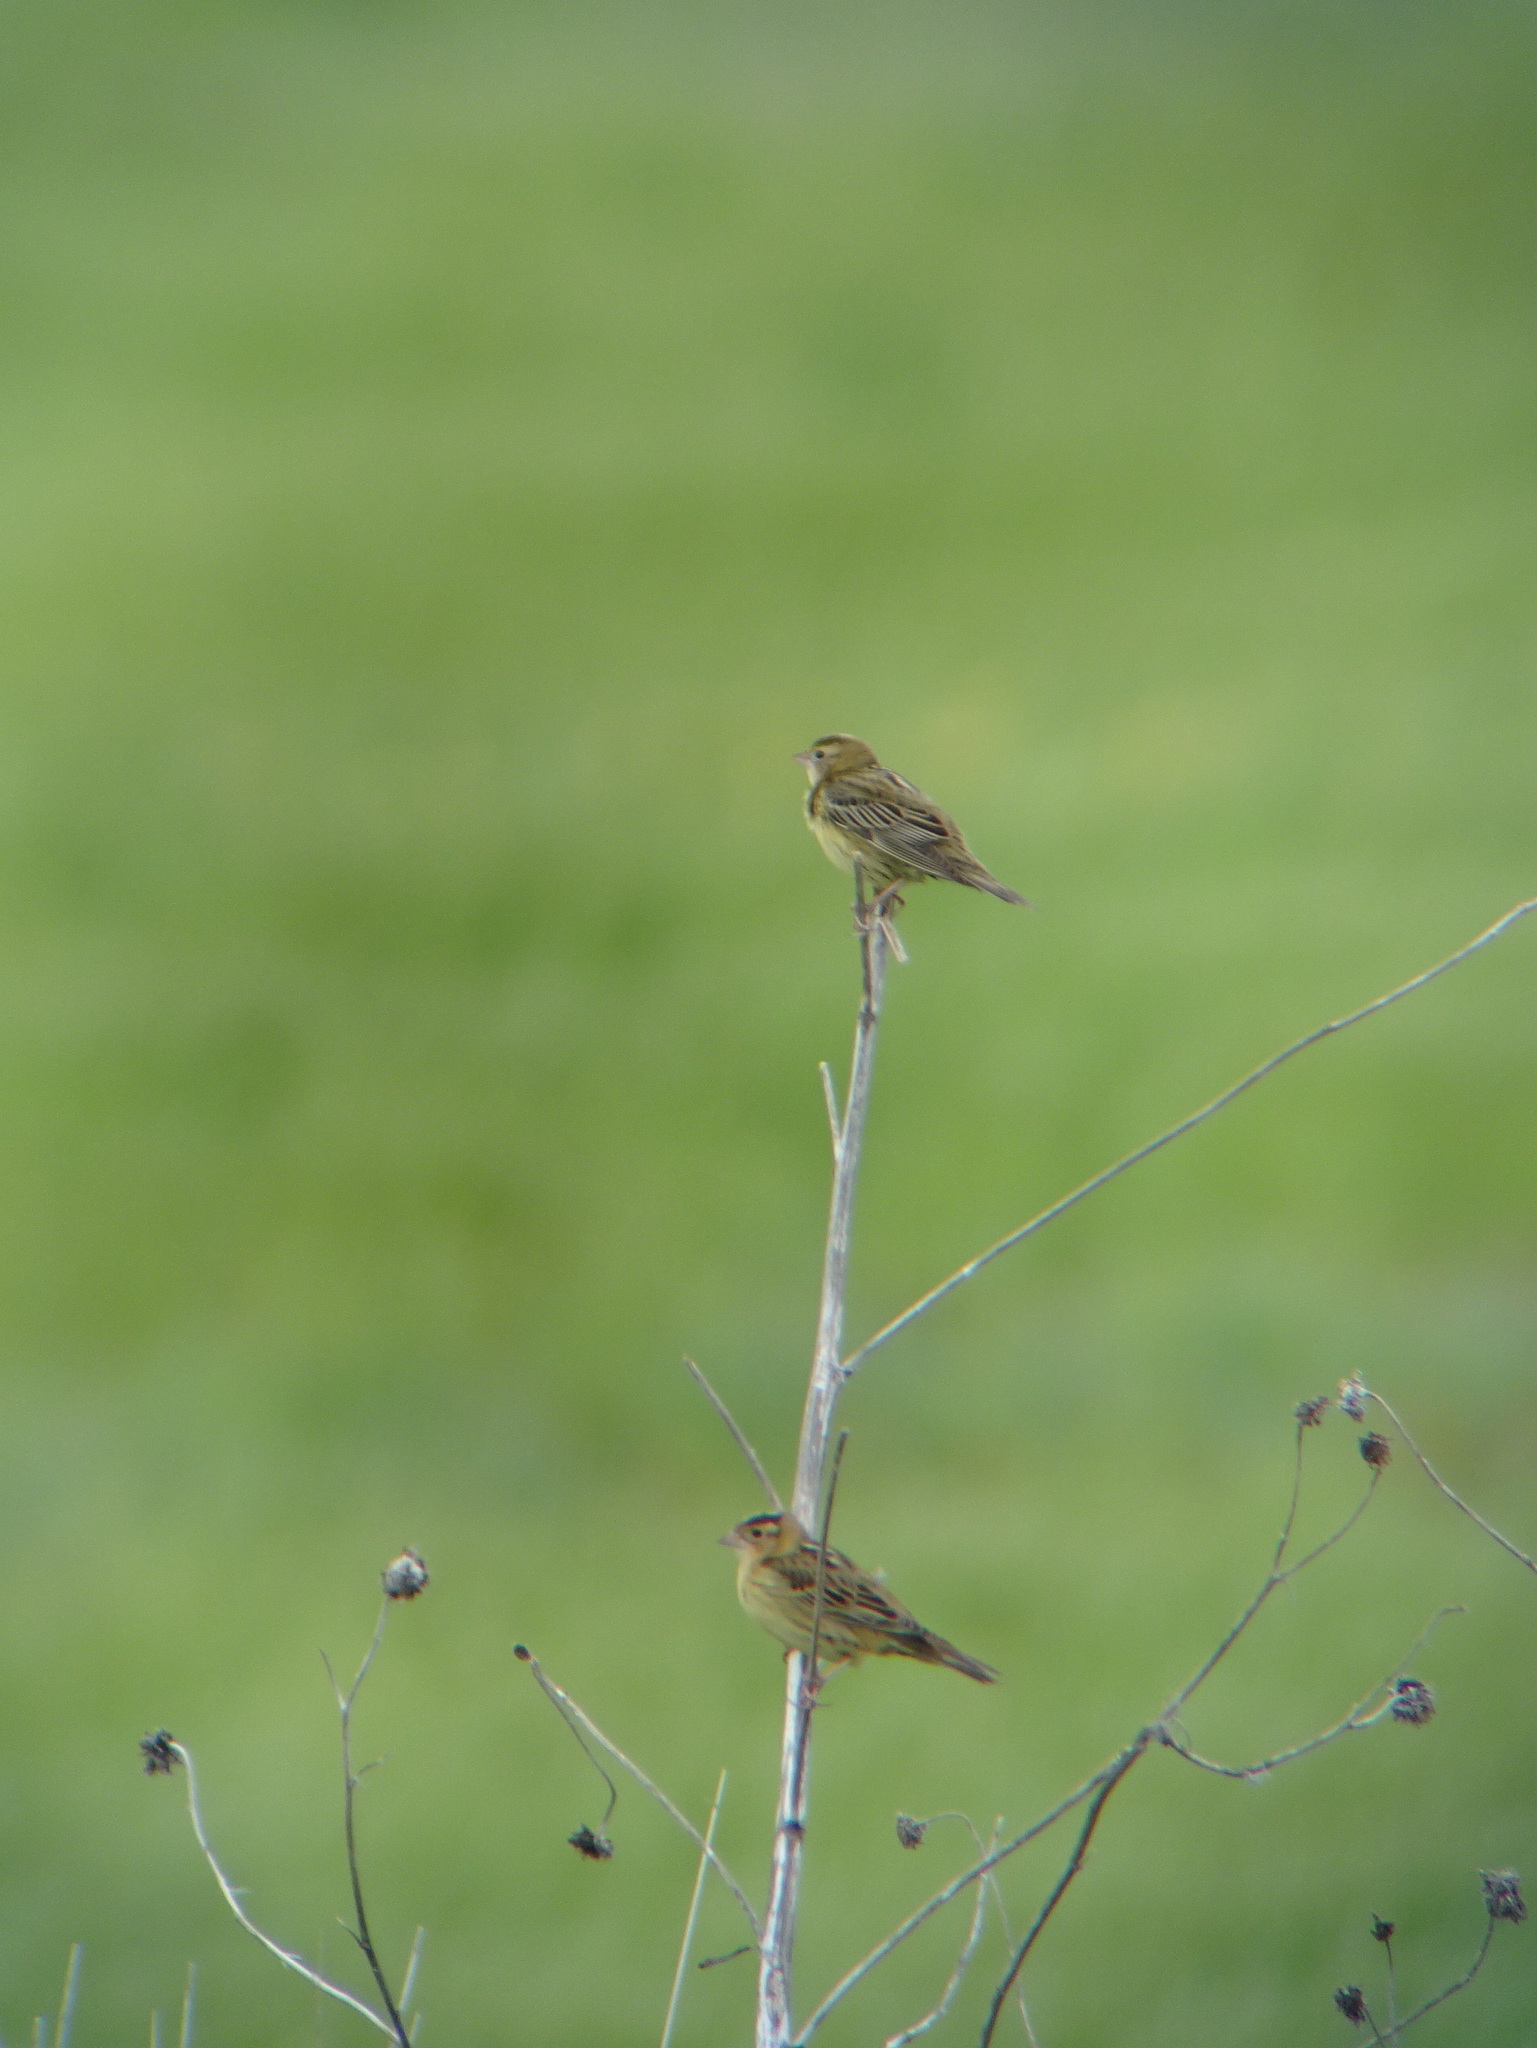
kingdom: Animalia
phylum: Chordata
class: Aves
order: Passeriformes
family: Icteridae
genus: Dolichonyx
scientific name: Dolichonyx oryzivorus
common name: Bobolink
